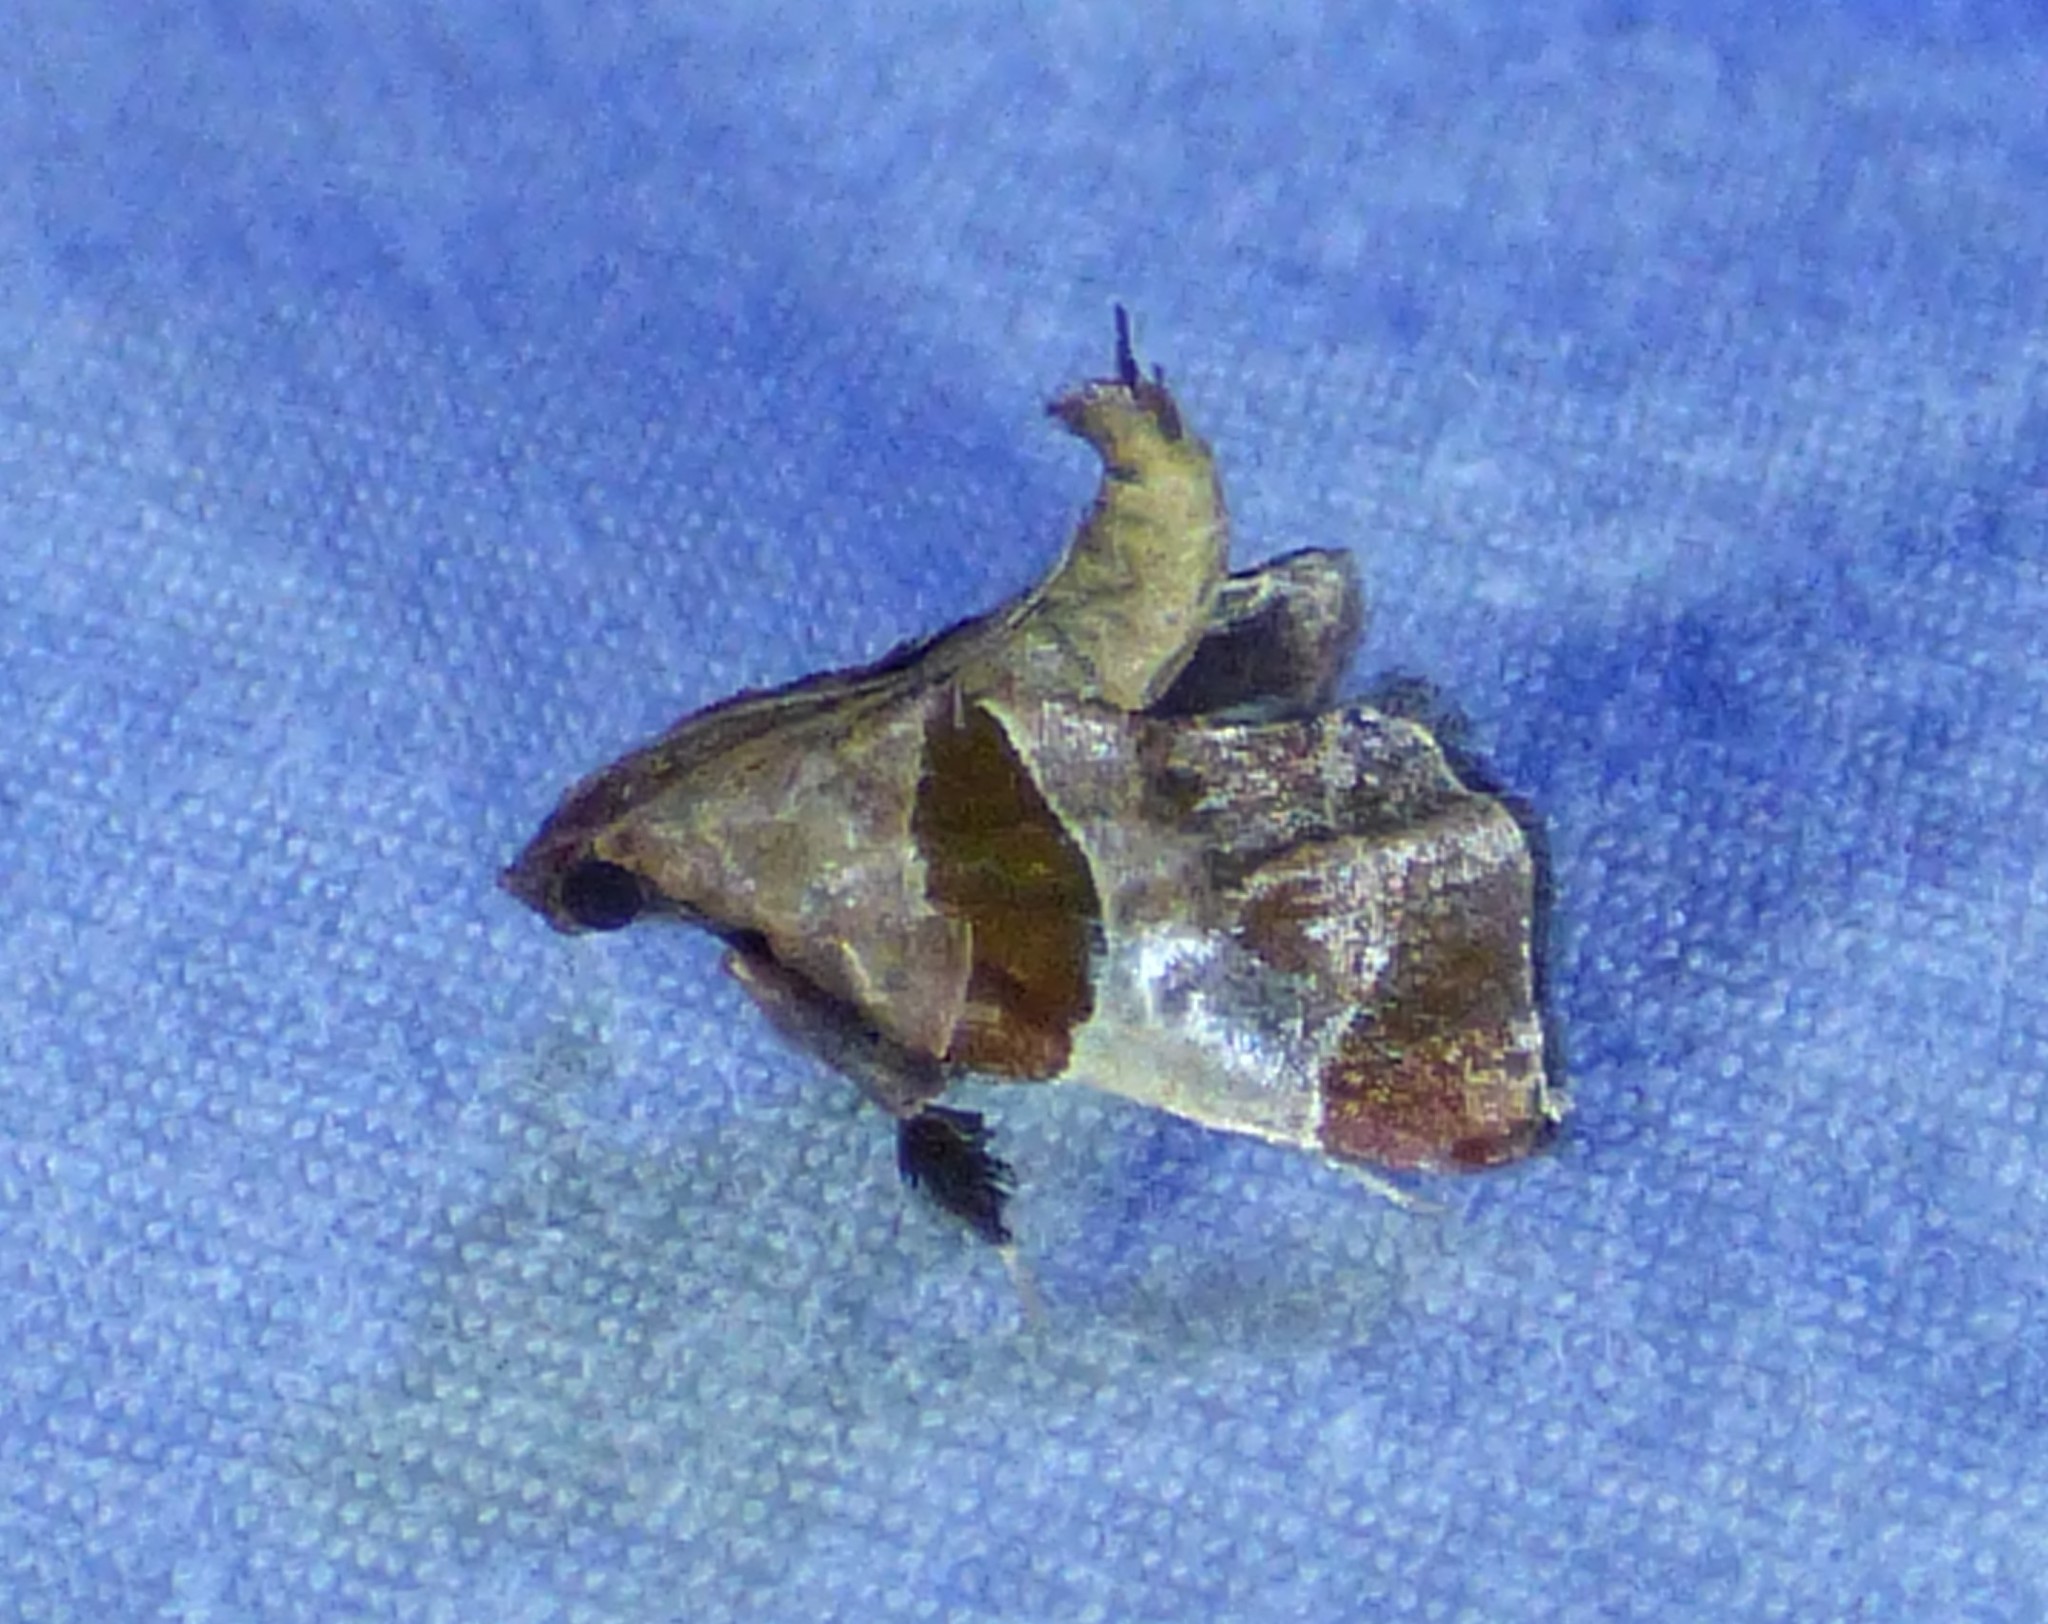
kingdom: Animalia
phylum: Arthropoda
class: Insecta
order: Lepidoptera
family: Pyralidae
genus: Tosale
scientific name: Tosale oviplagalis
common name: Dimorphic tosale moth
